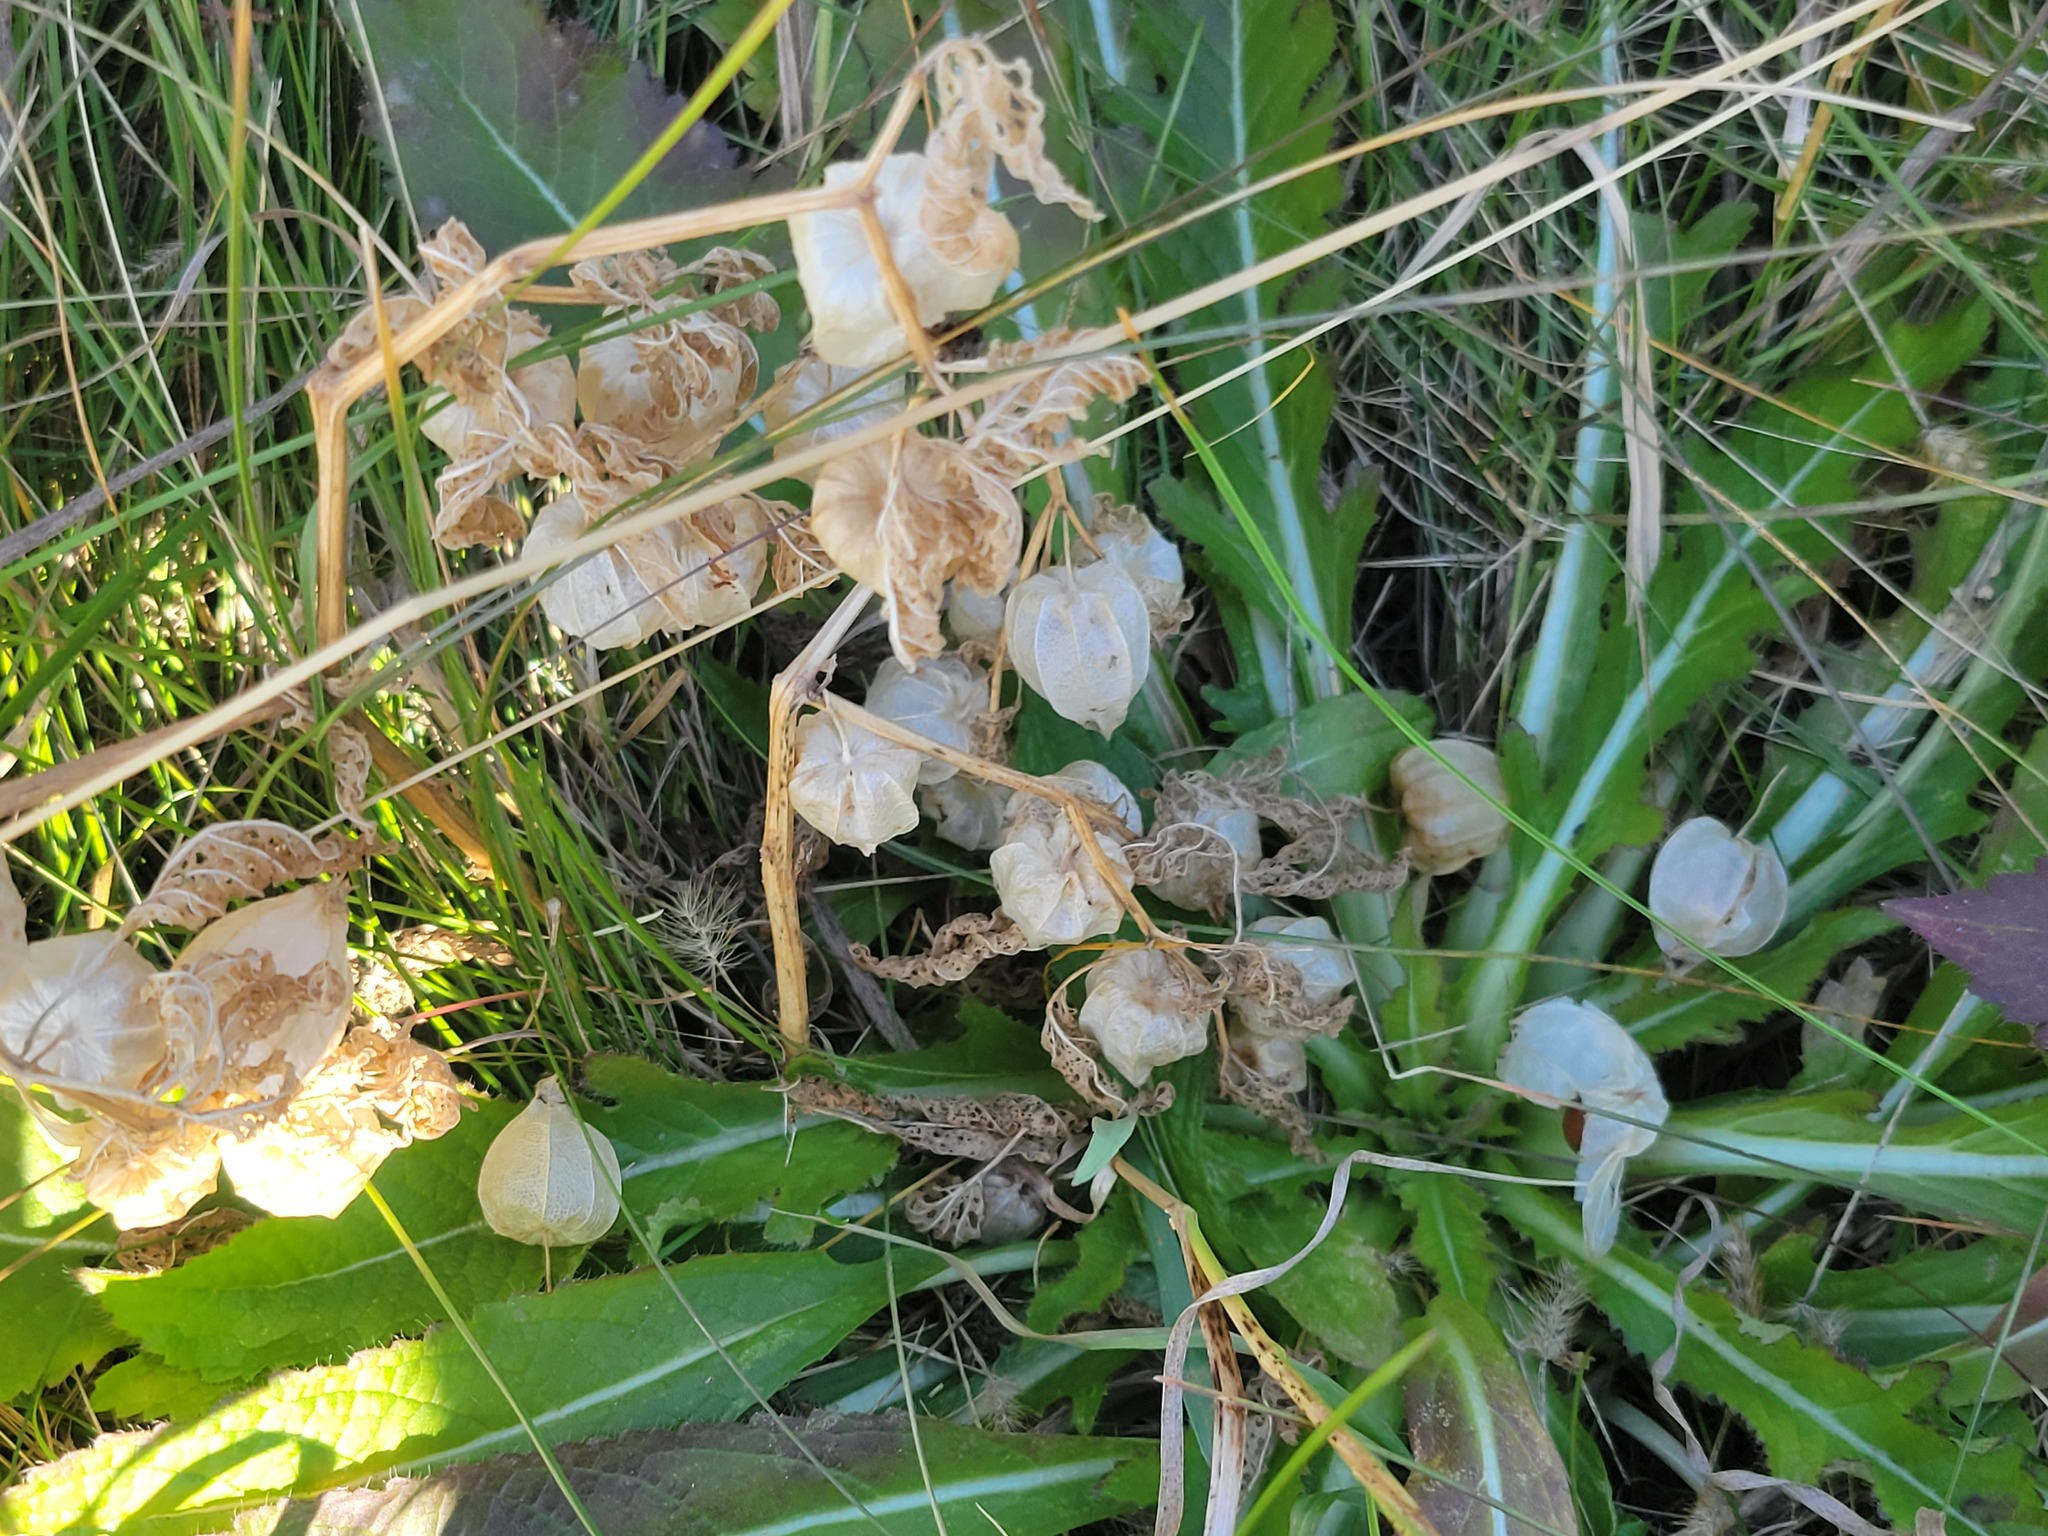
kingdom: Plantae
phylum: Tracheophyta
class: Magnoliopsida
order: Solanales
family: Solanaceae
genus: Physalis
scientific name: Physalis longifolia
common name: Common ground-cherry
